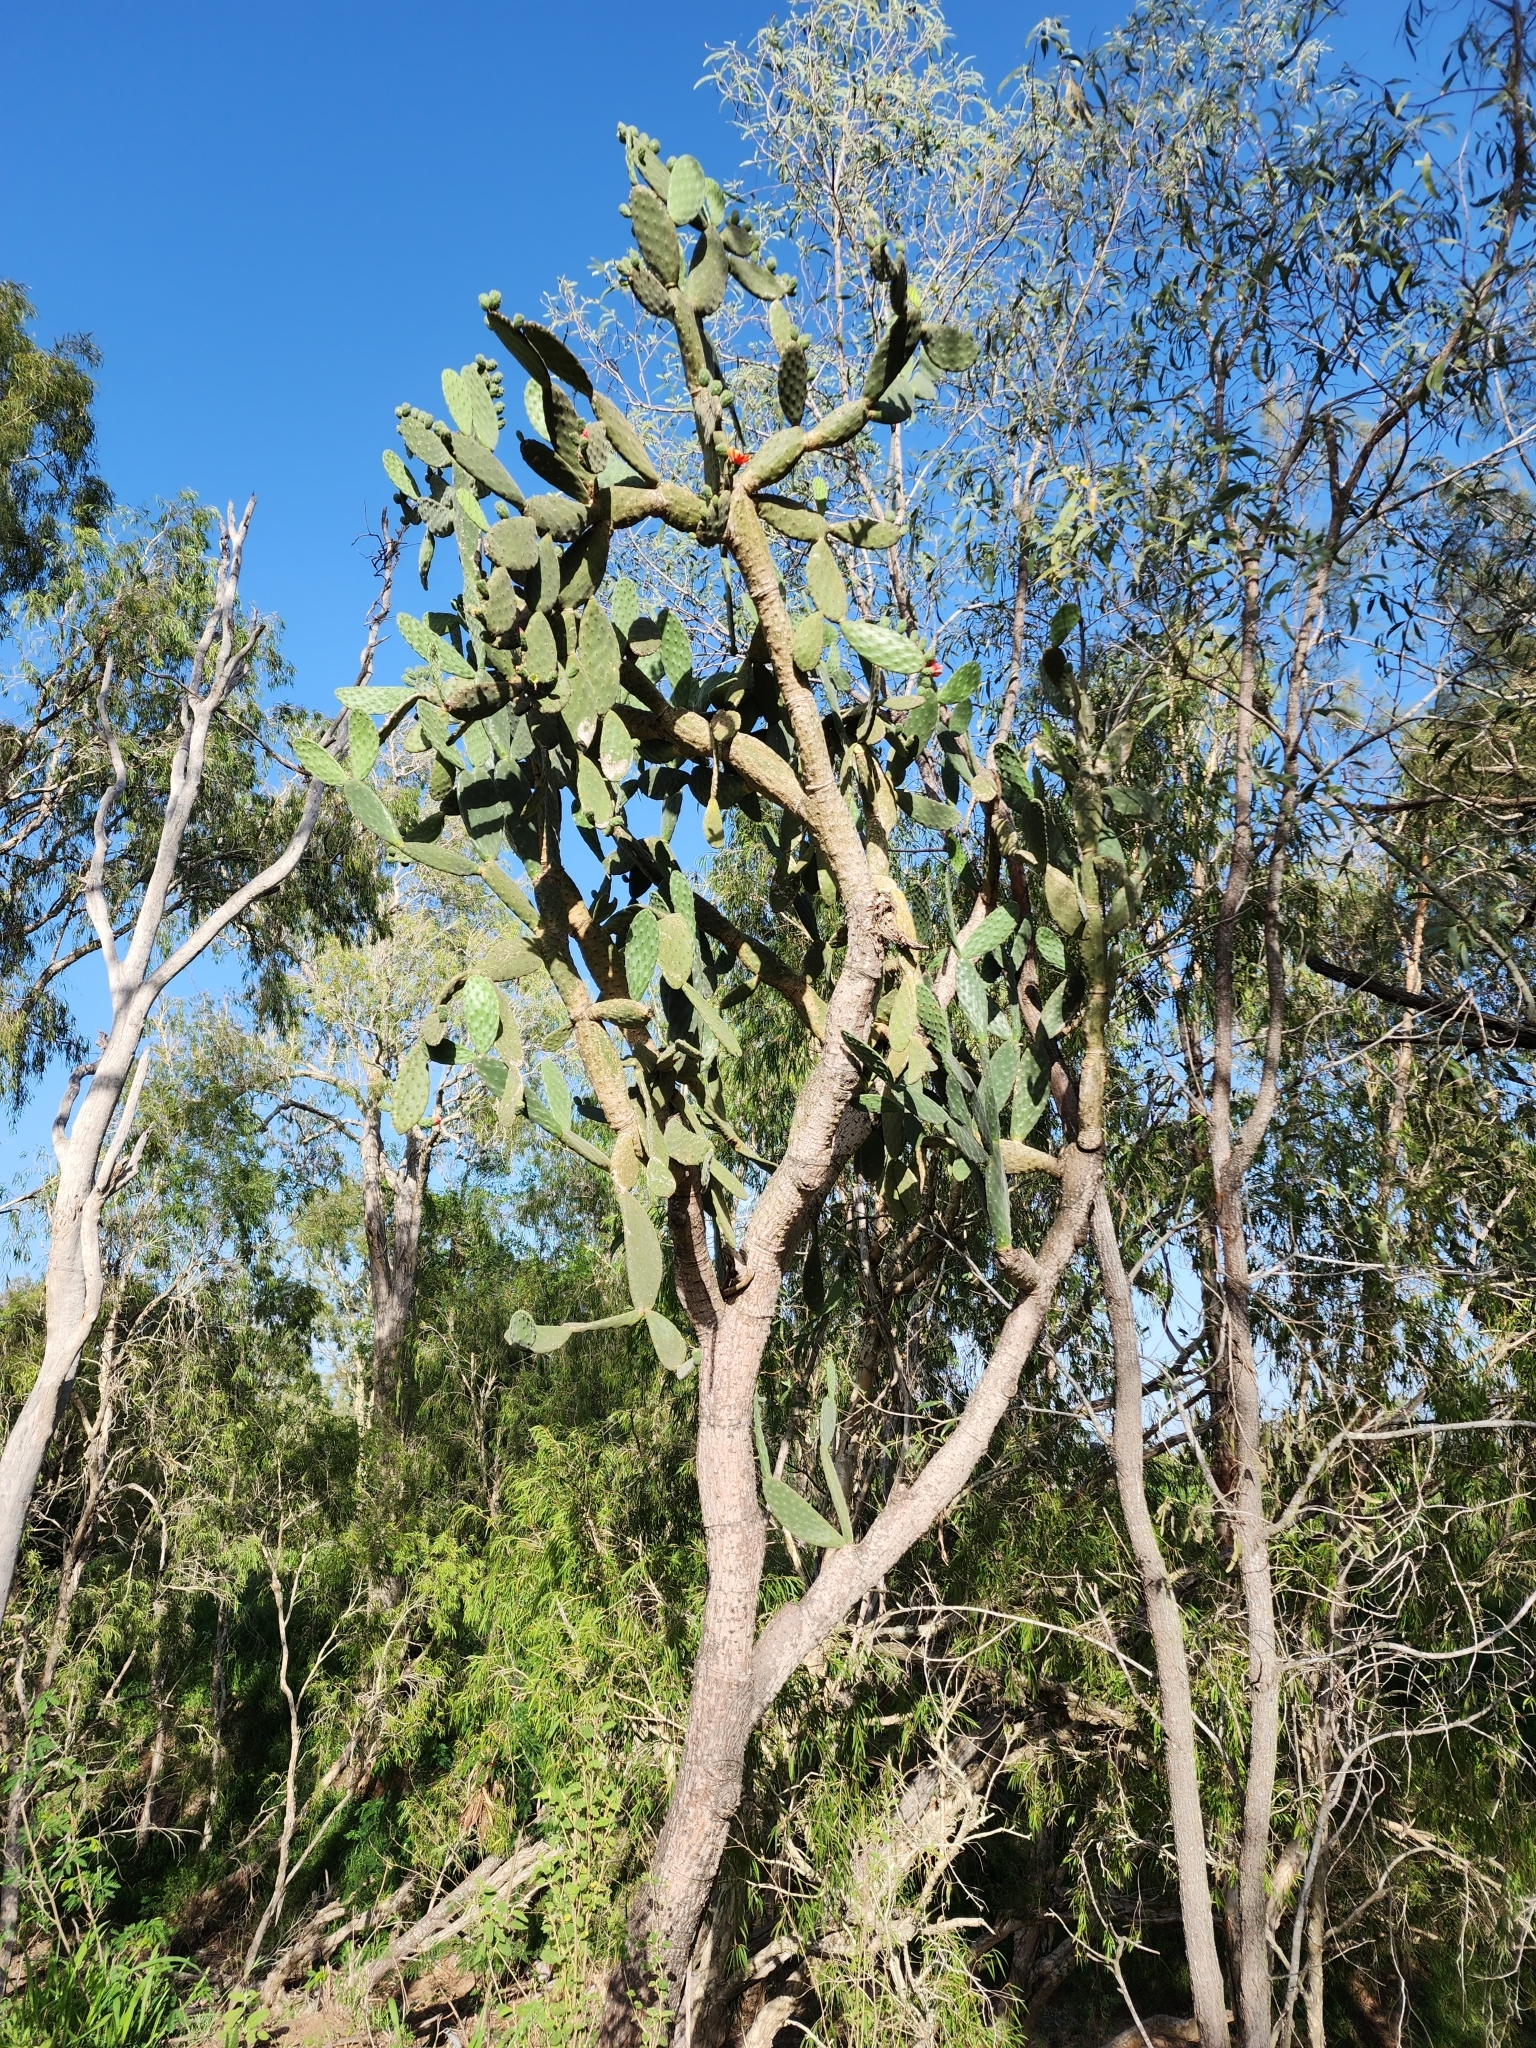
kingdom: Plantae
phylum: Tracheophyta
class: Magnoliopsida
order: Caryophyllales
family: Cactaceae
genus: Opuntia
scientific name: Opuntia tomentosa
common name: Woollyjoint pricklypear
